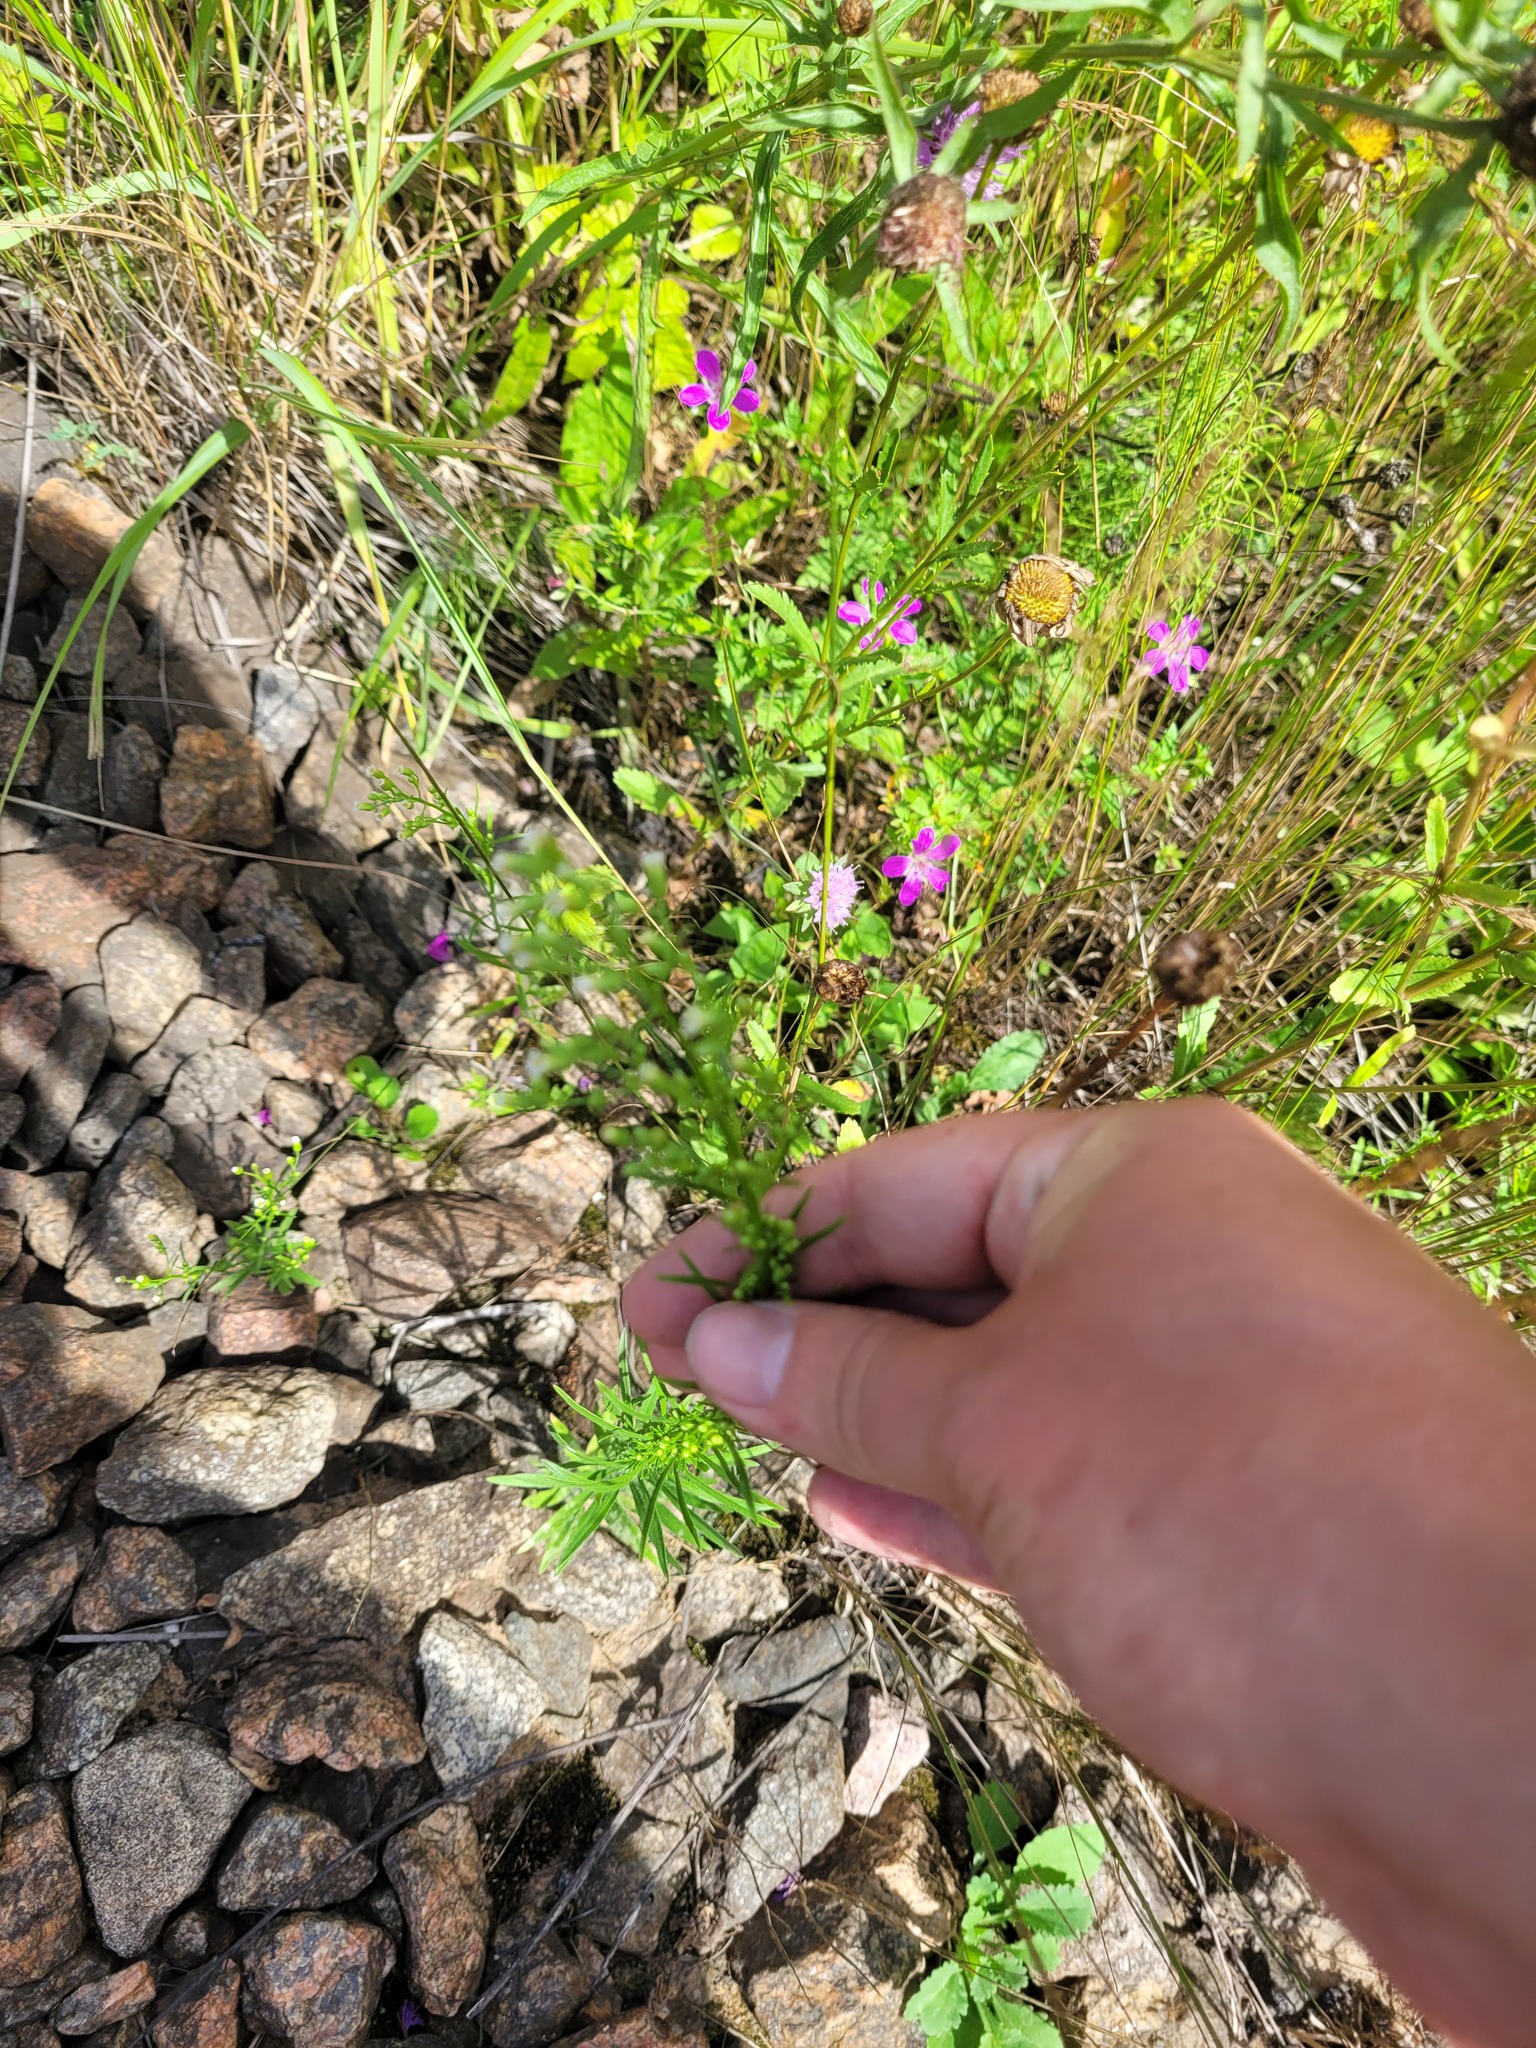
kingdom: Plantae
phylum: Tracheophyta
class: Magnoliopsida
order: Asterales
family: Asteraceae
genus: Erigeron
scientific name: Erigeron canadensis
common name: Canadian fleabane
